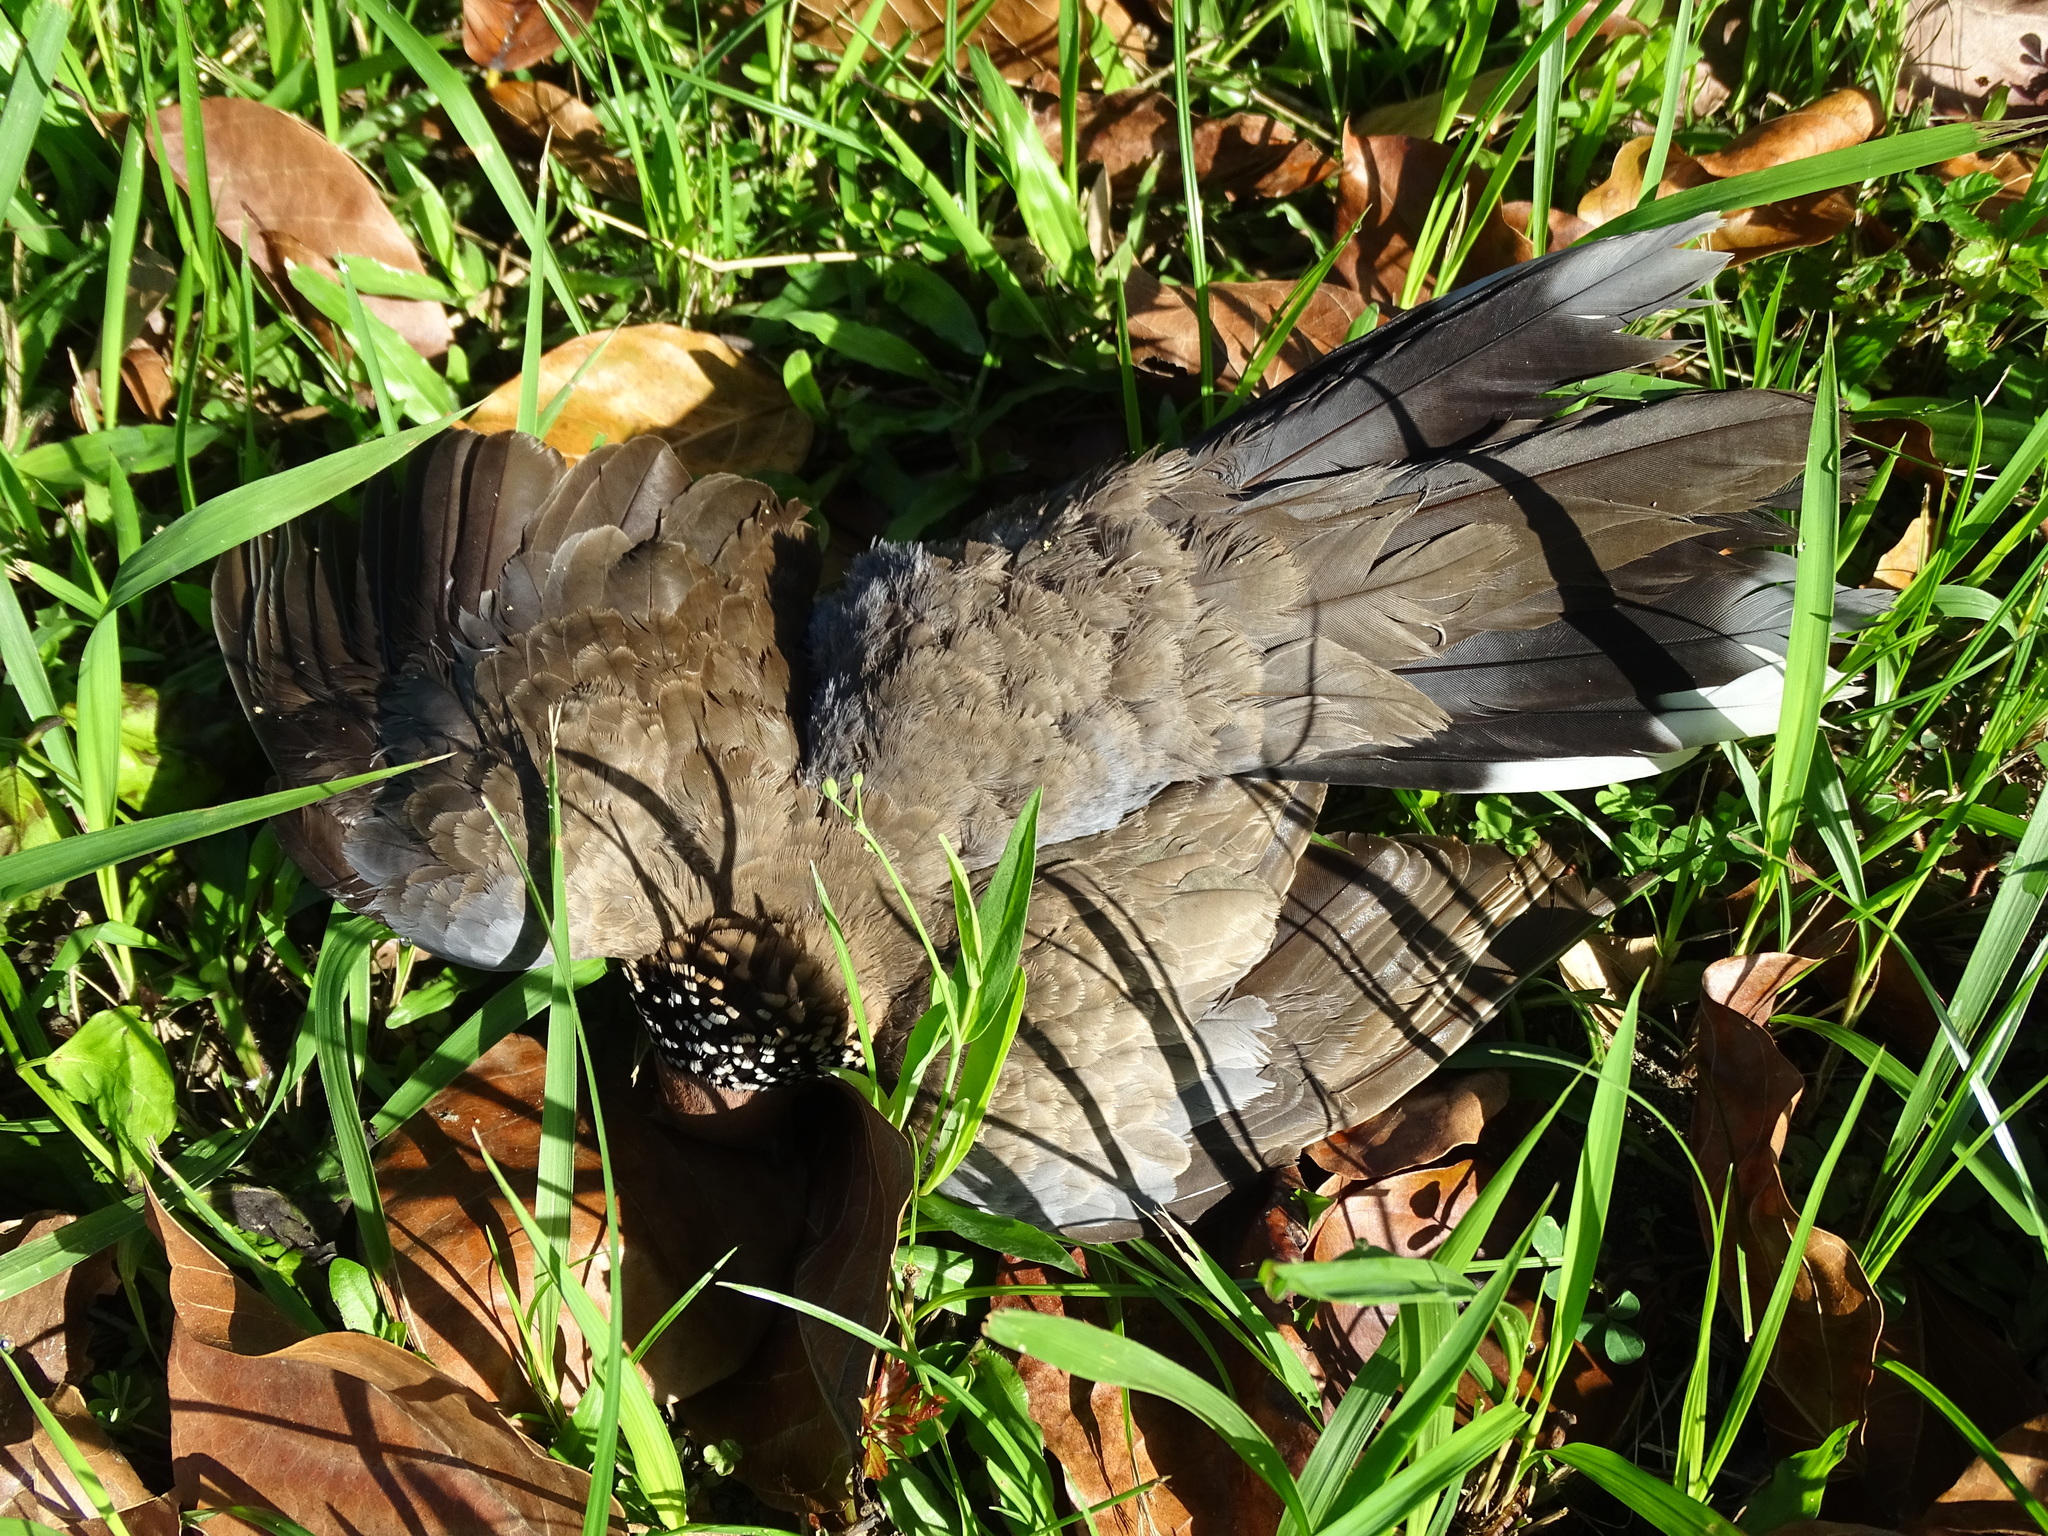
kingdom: Animalia
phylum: Chordata
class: Aves
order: Columbiformes
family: Columbidae
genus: Spilopelia
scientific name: Spilopelia chinensis
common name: Spotted dove
